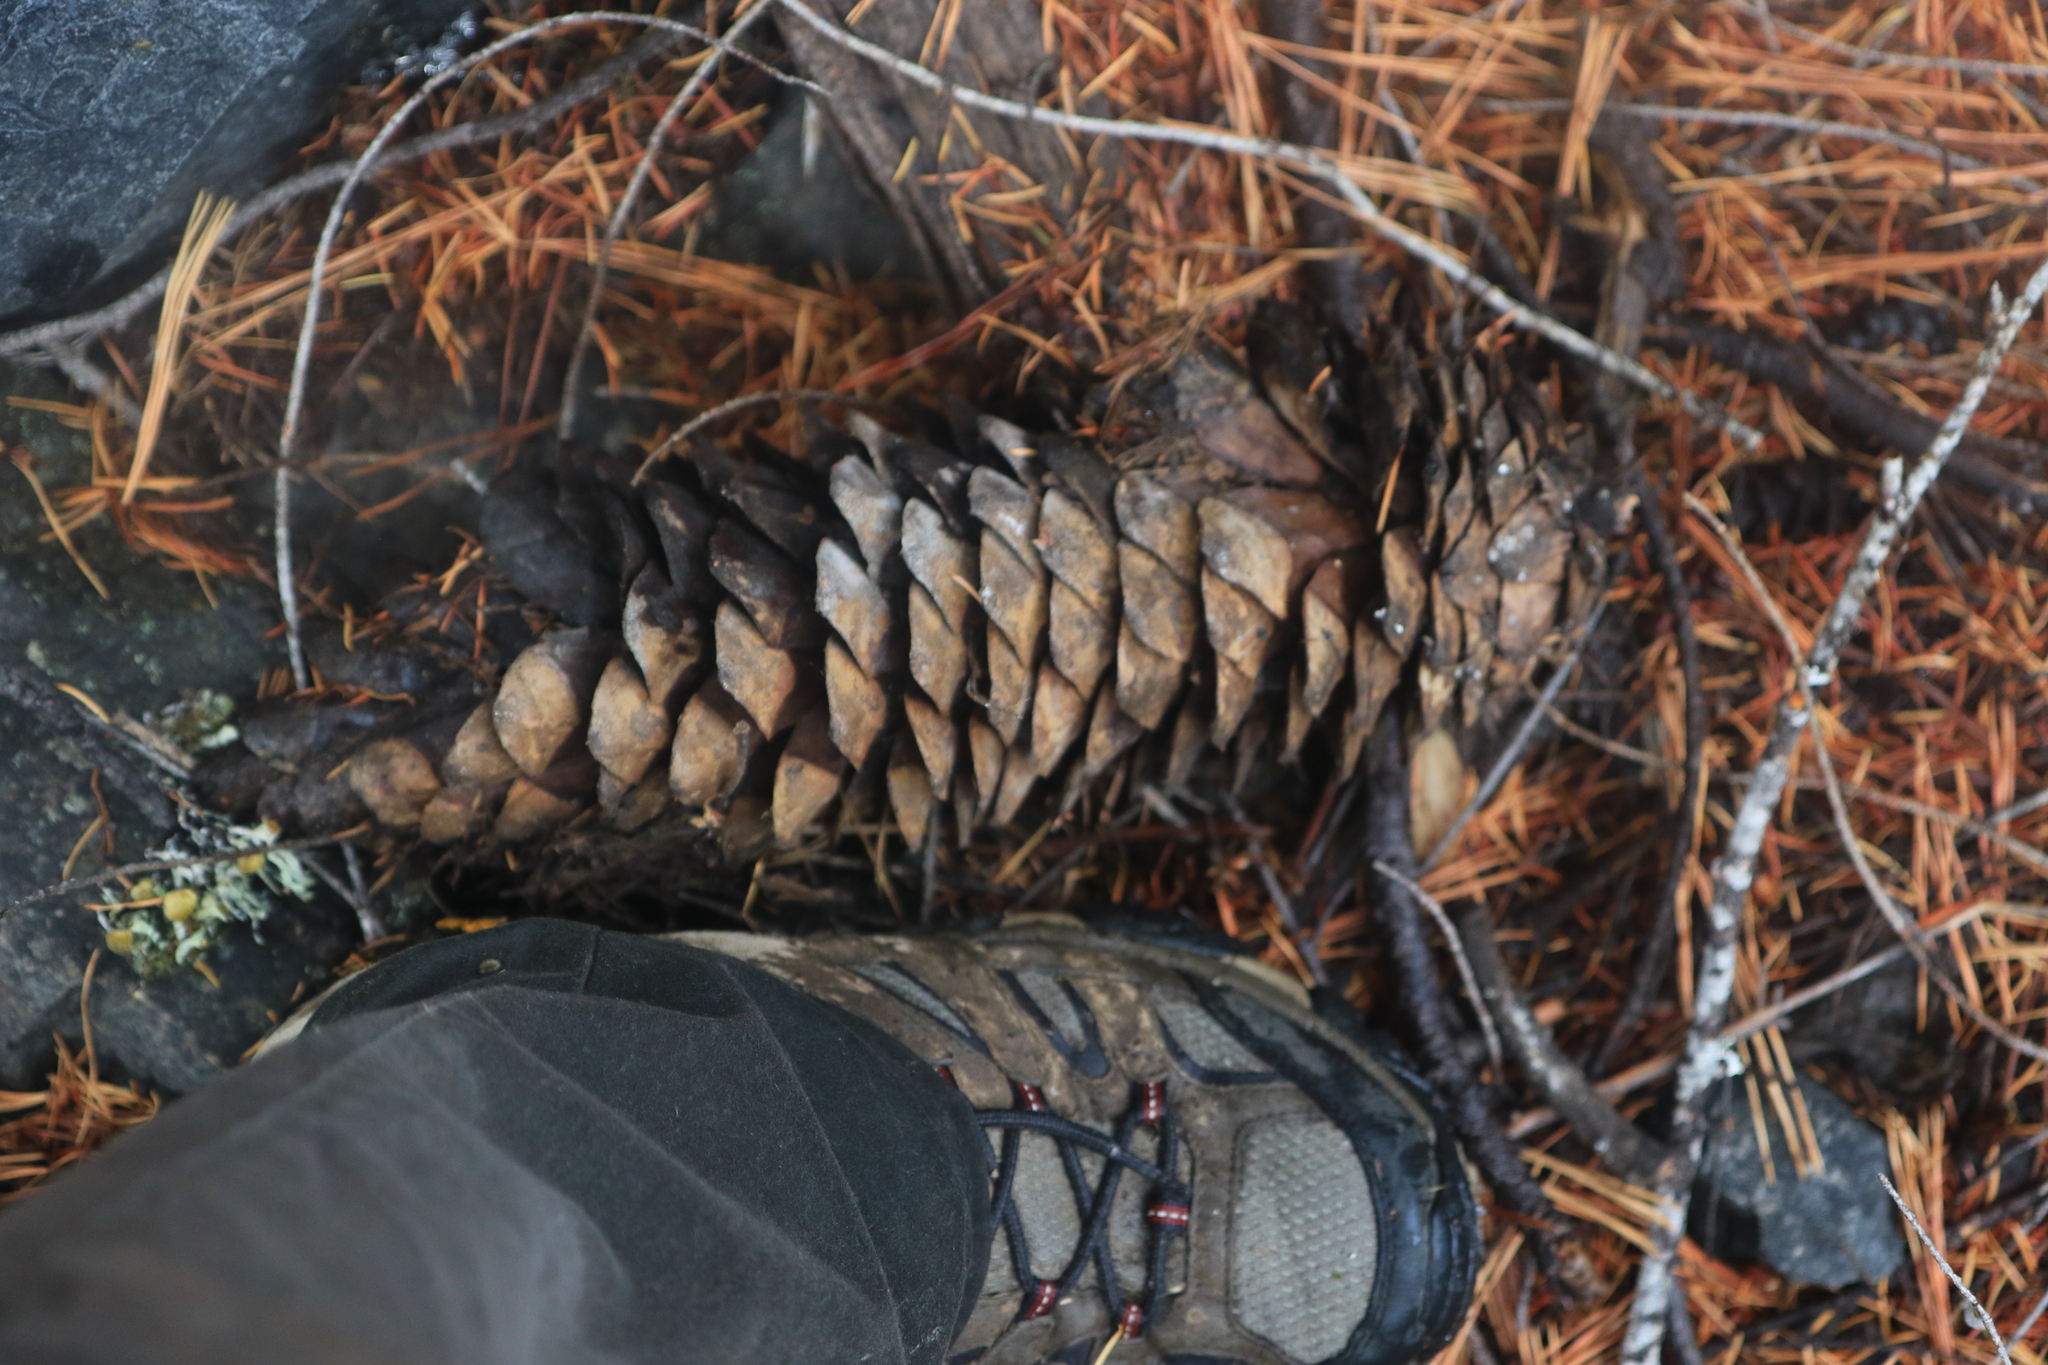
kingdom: Plantae
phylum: Tracheophyta
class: Pinopsida
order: Pinales
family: Pinaceae
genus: Pinus
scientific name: Pinus lambertiana
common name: Sugar pine
